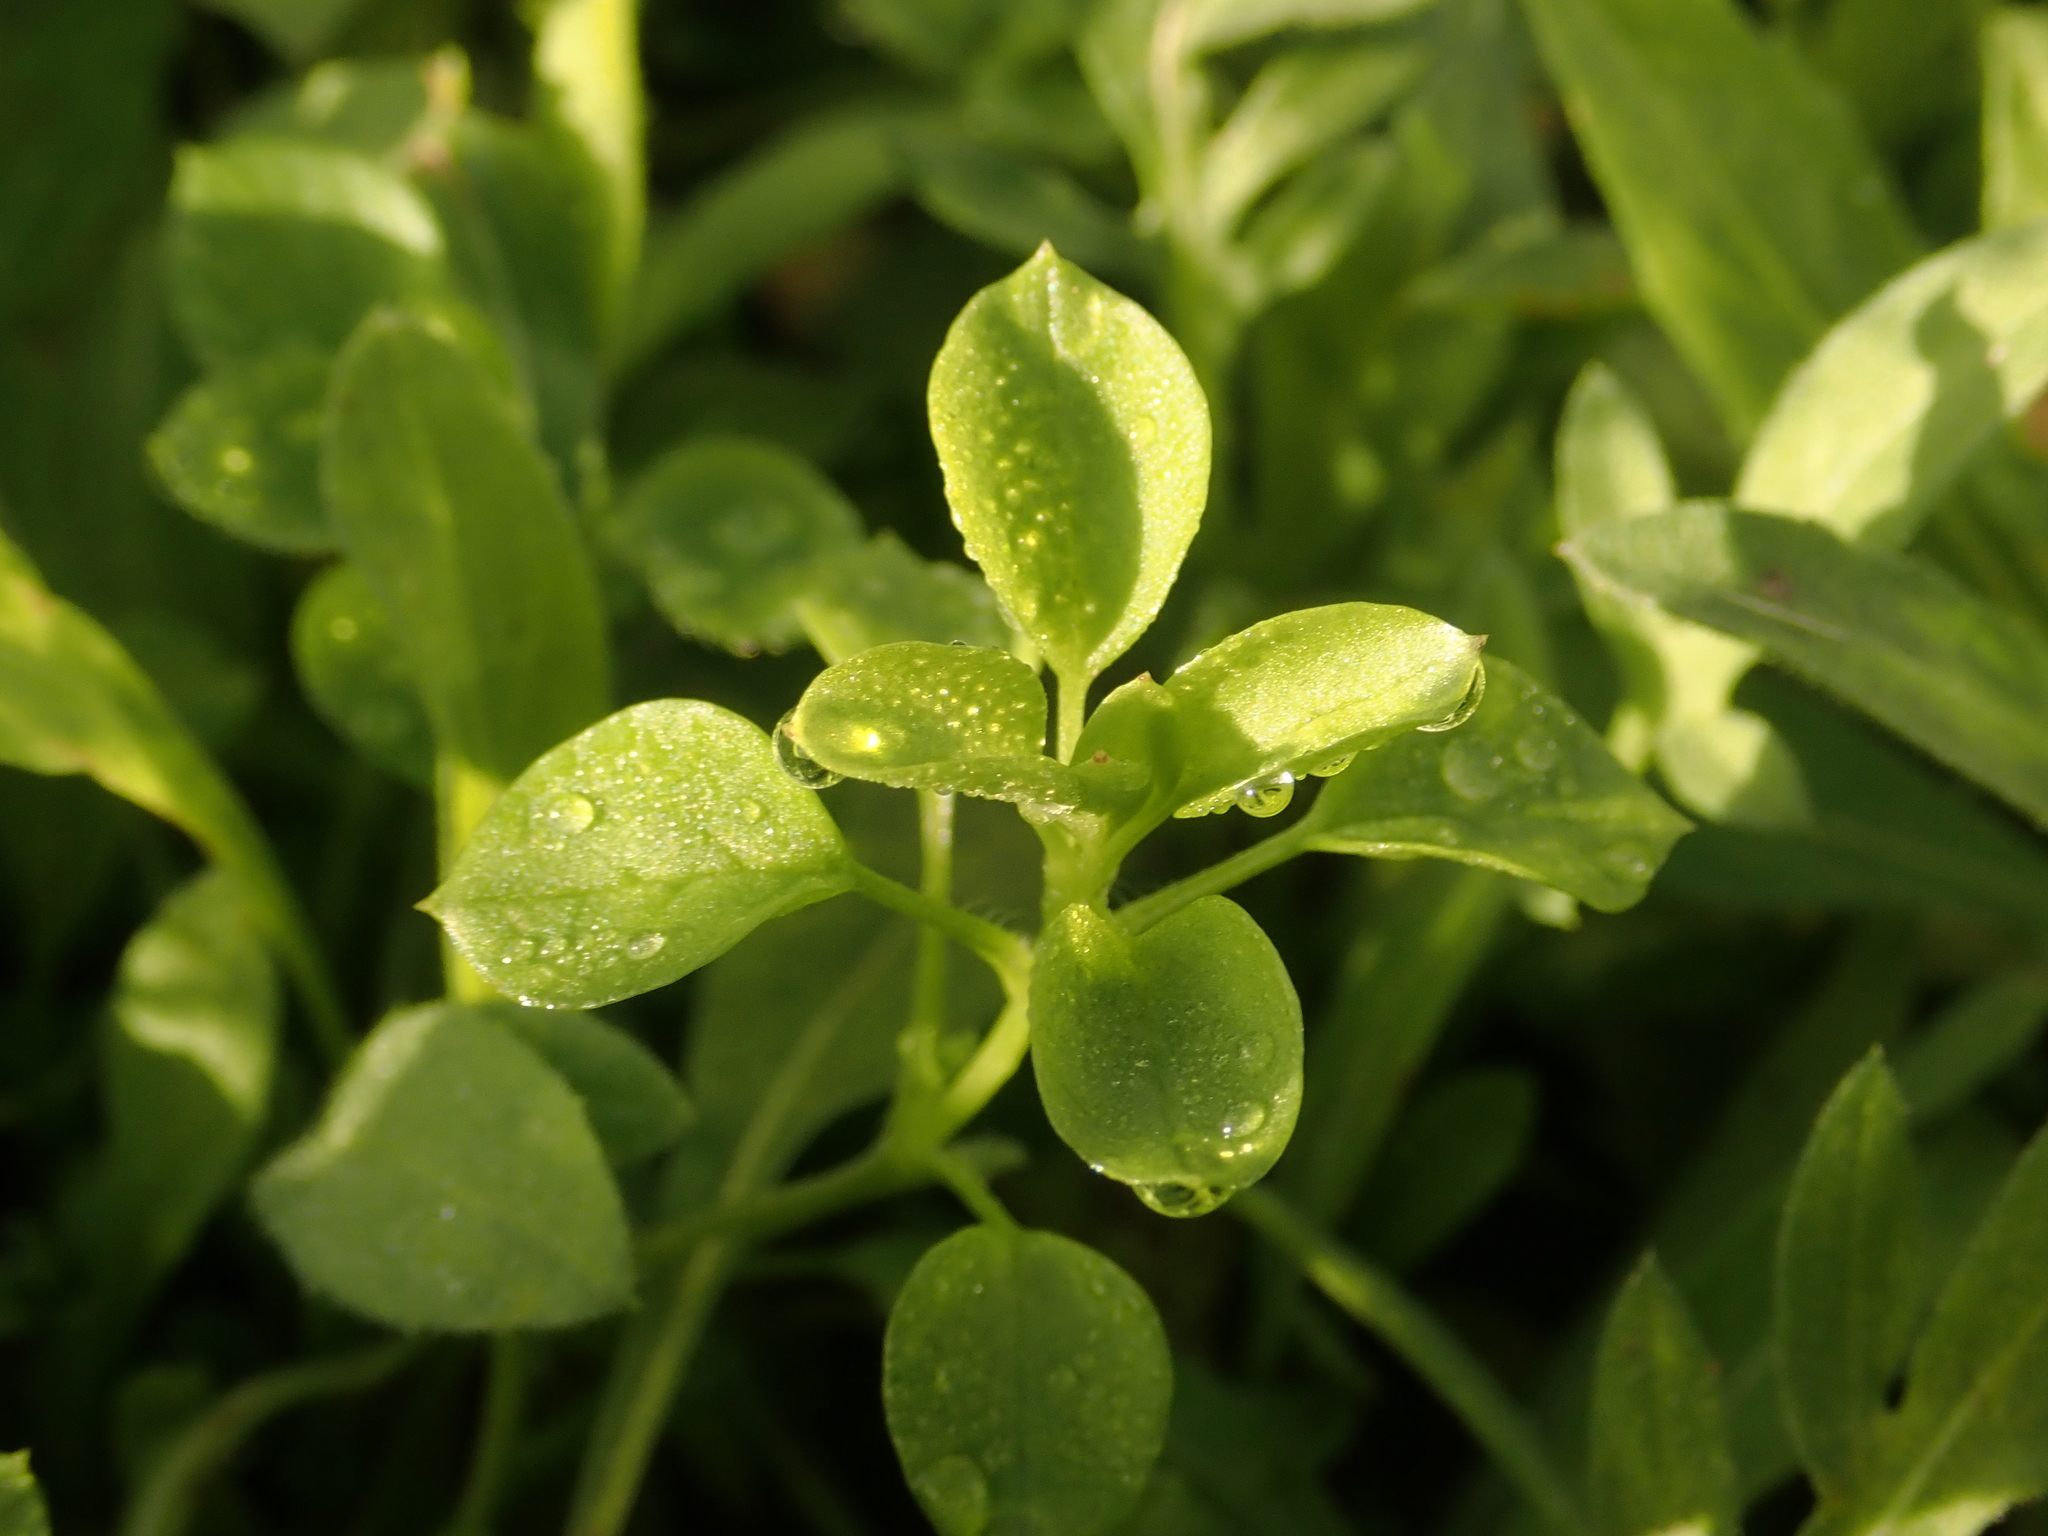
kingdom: Plantae
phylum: Tracheophyta
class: Magnoliopsida
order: Caryophyllales
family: Caryophyllaceae
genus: Stellaria
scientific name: Stellaria media
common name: Common chickweed
